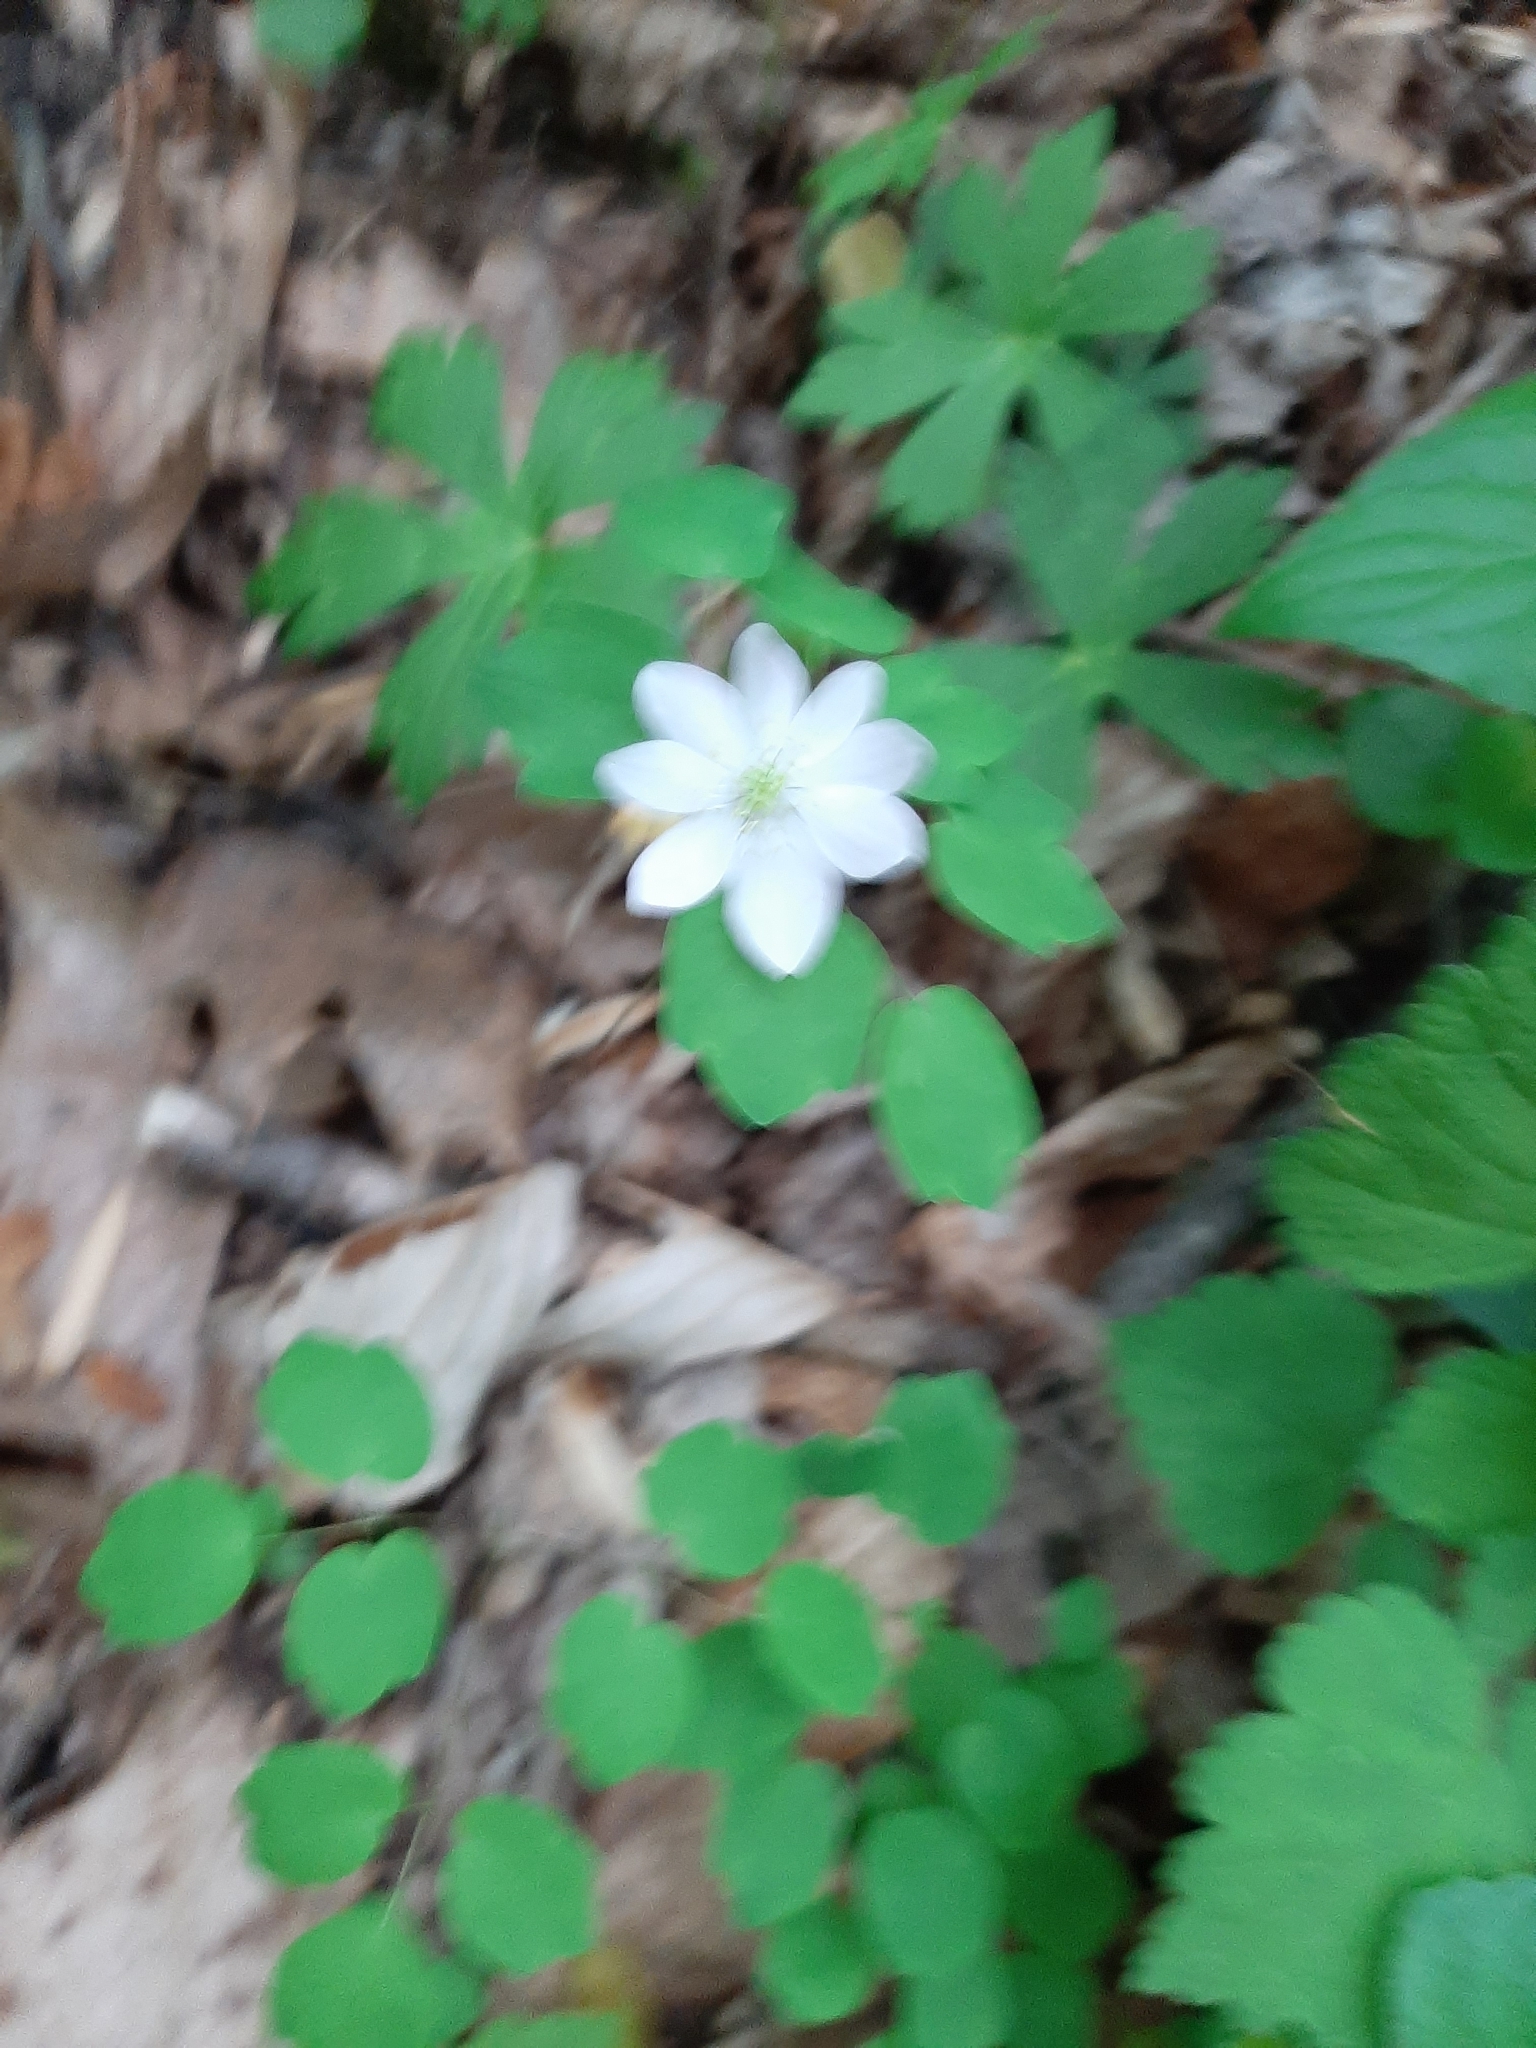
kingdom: Plantae
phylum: Tracheophyta
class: Magnoliopsida
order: Ranunculales
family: Ranunculaceae
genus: Thalictrum
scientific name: Thalictrum thalictroides
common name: Rue-anemone
